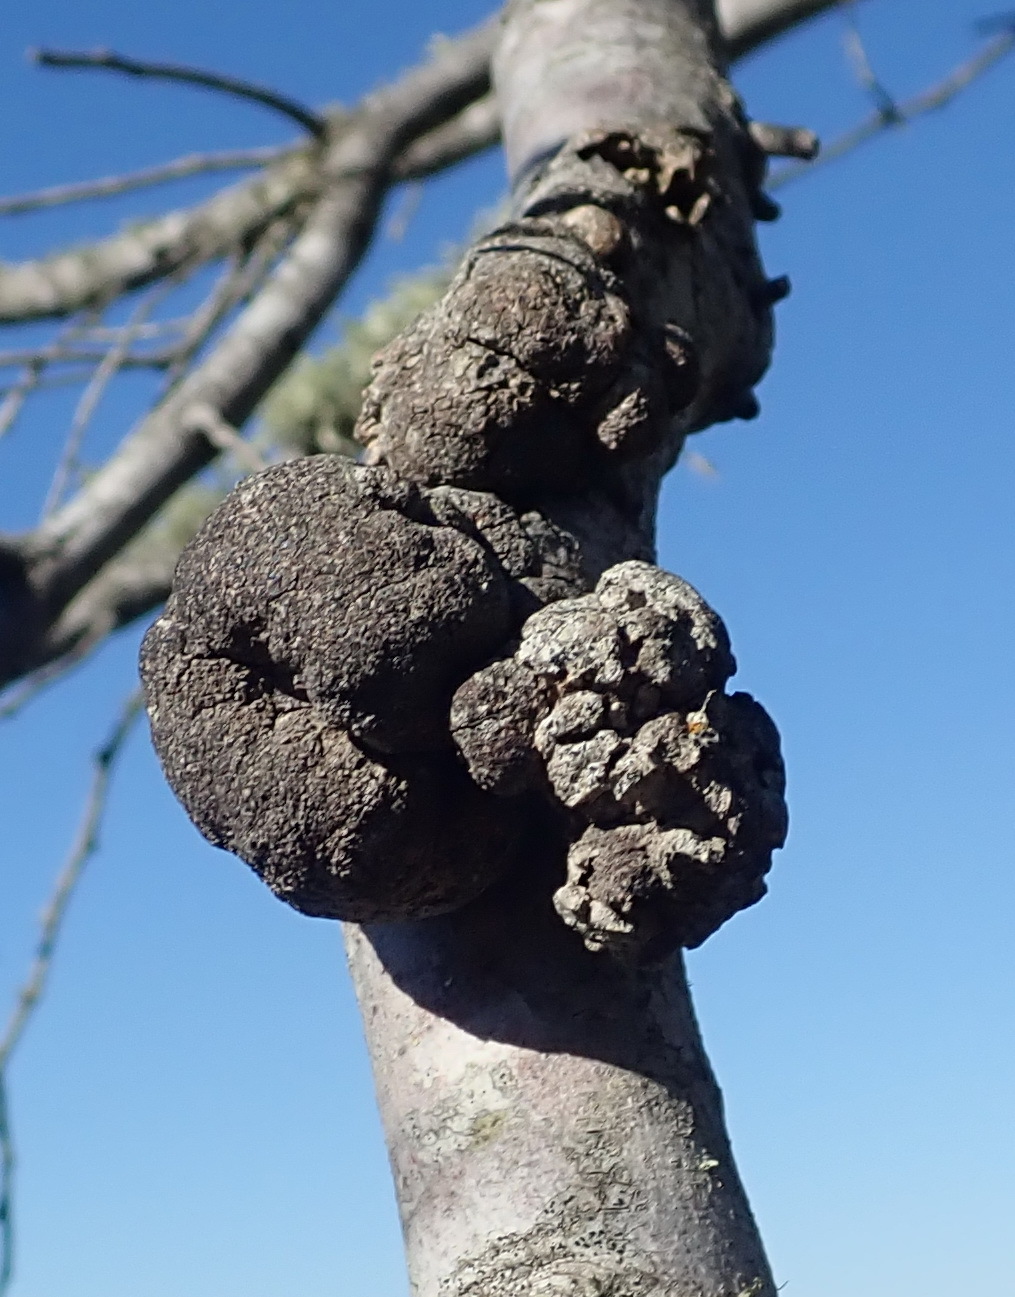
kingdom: Fungi
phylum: Basidiomycota
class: Pucciniomycetes
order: Pucciniales
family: Uromycladiaceae
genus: Uromycladium
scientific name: Uromycladium morrisii
